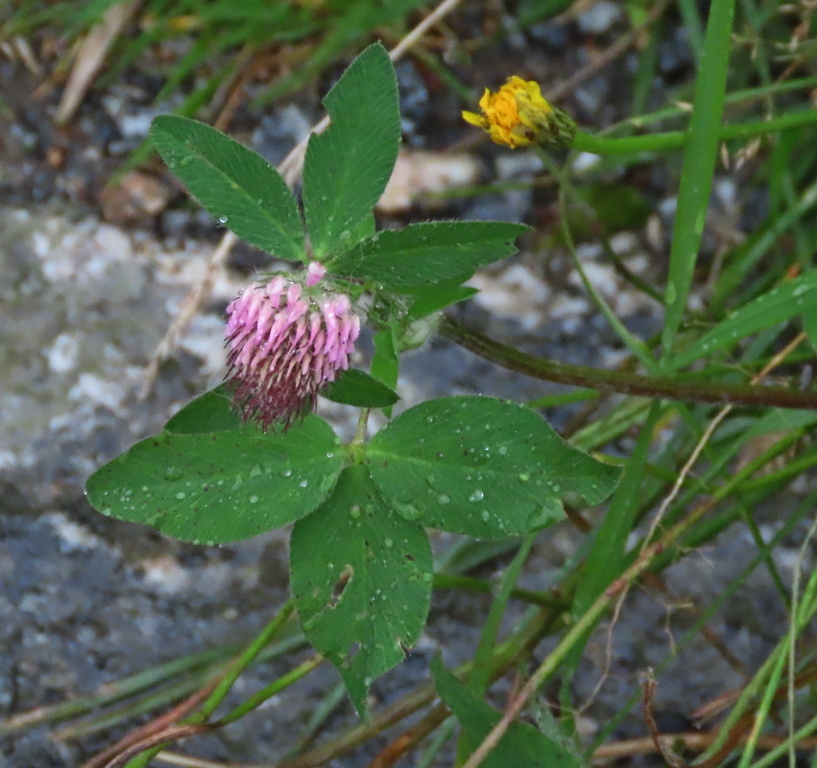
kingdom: Plantae
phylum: Tracheophyta
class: Magnoliopsida
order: Fabales
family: Fabaceae
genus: Trifolium
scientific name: Trifolium pratense
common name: Red clover
